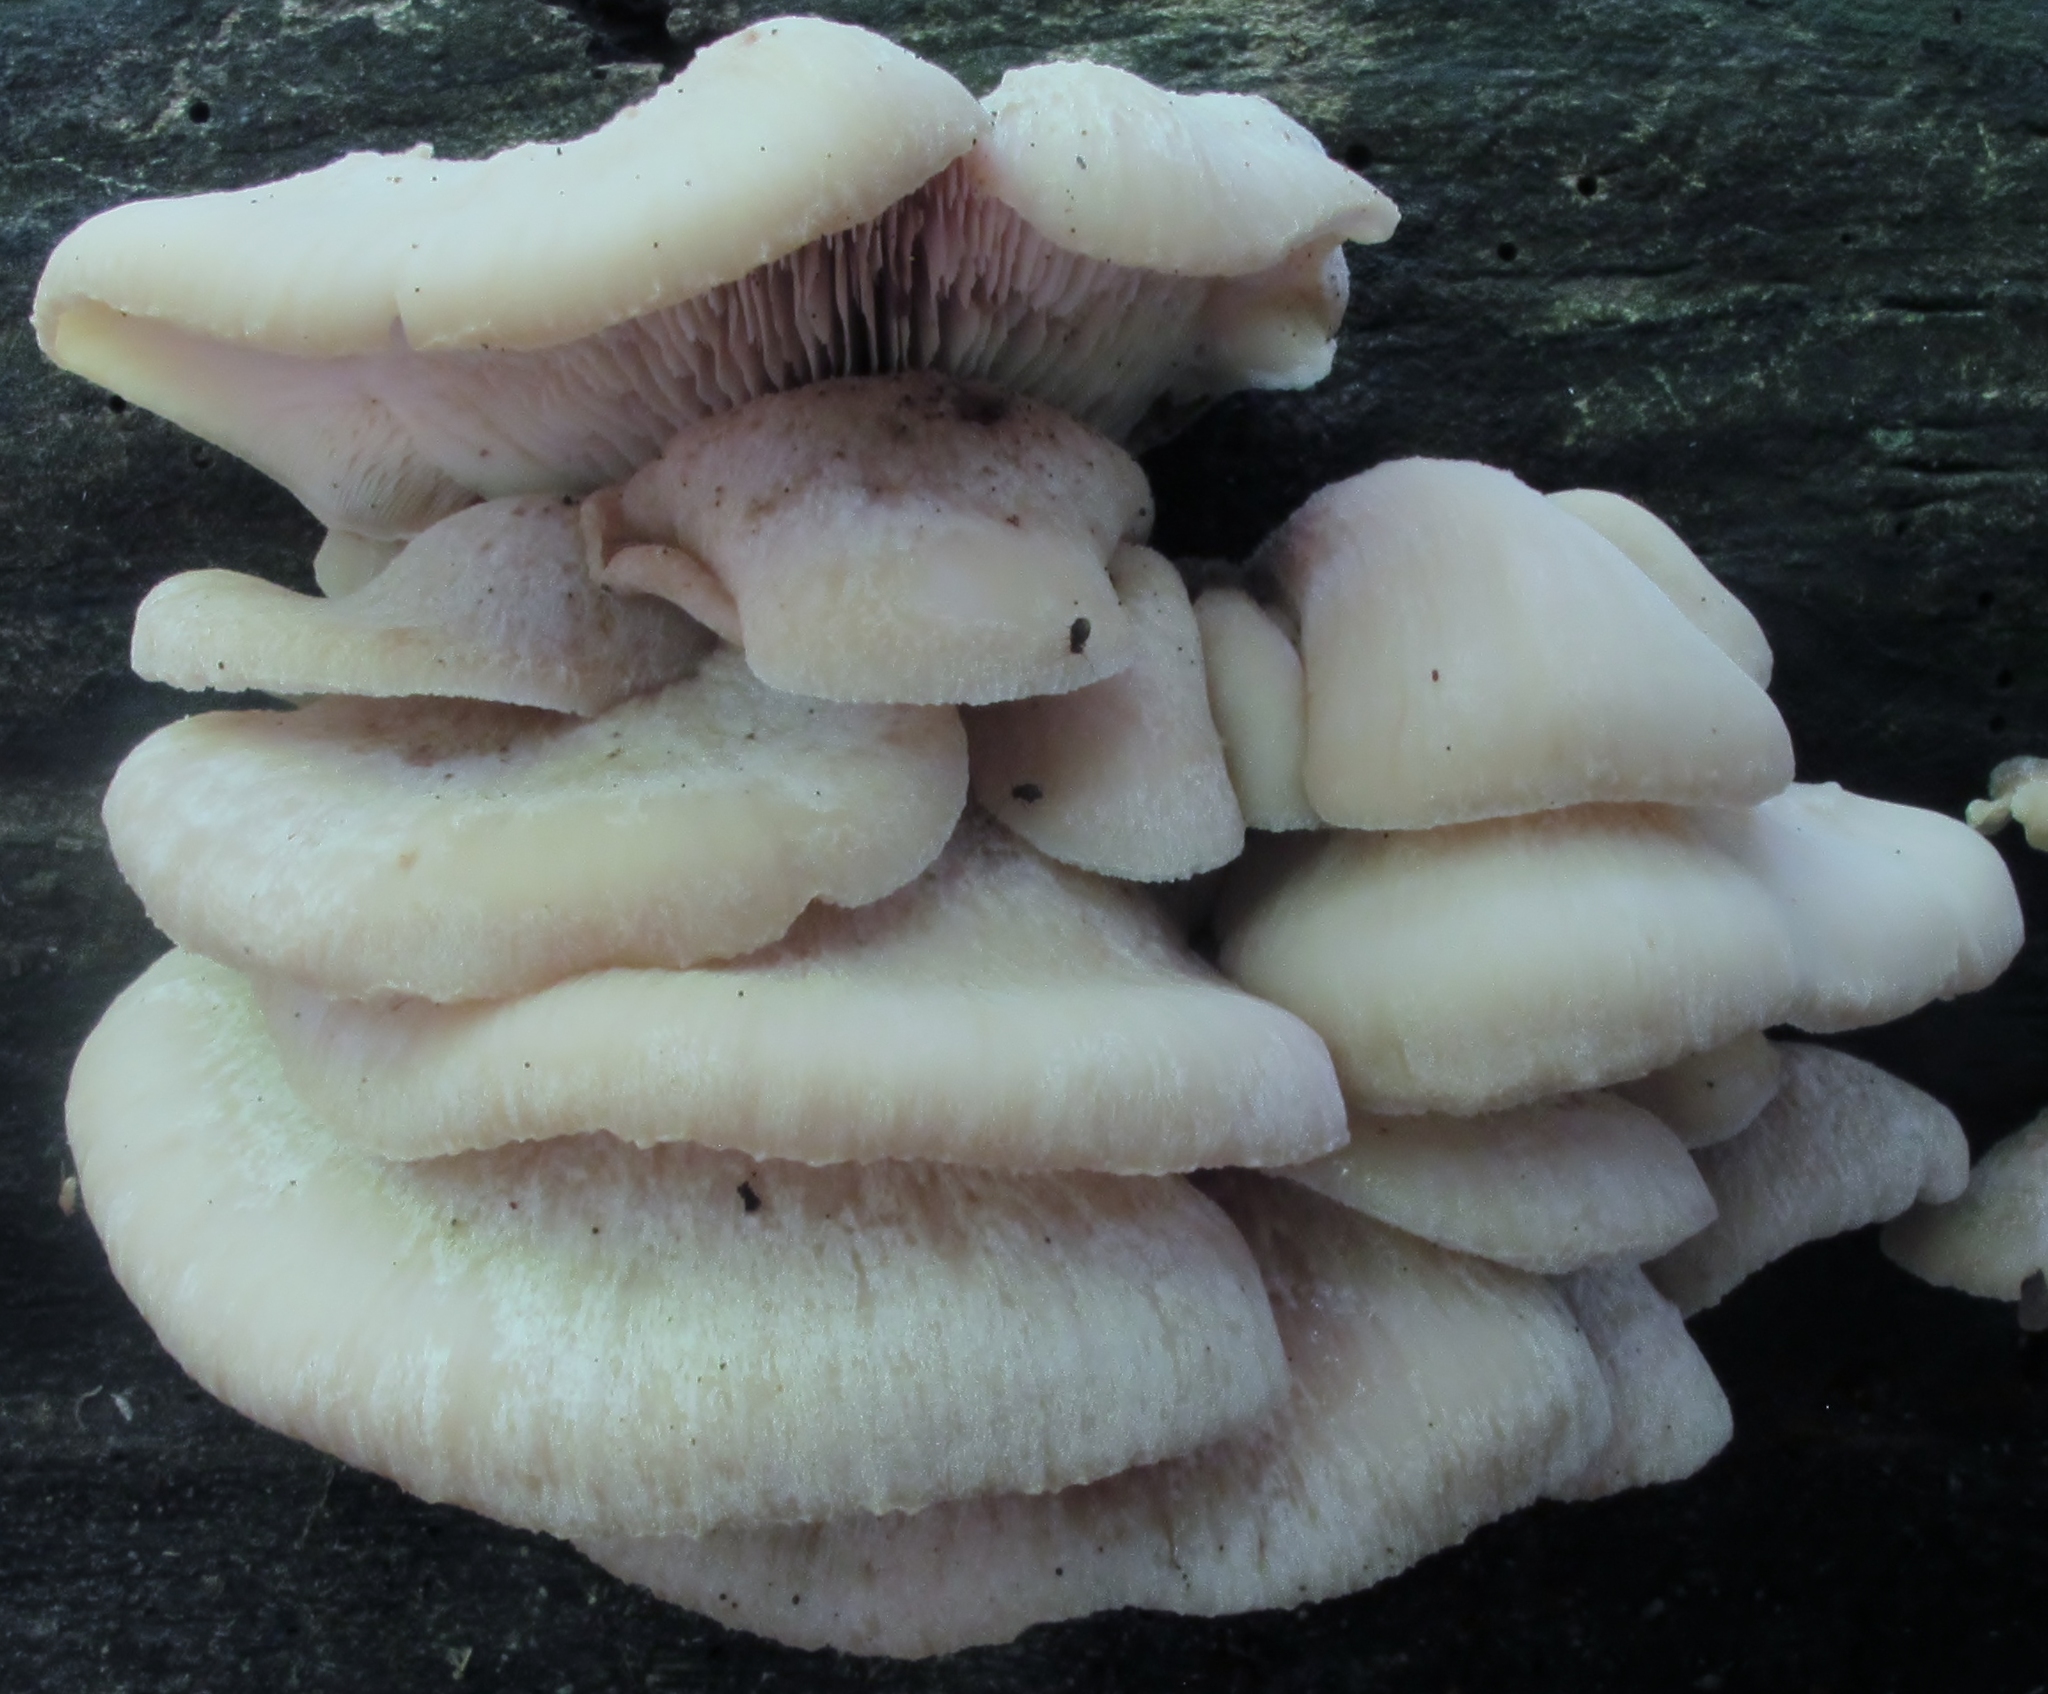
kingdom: Fungi
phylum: Basidiomycota
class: Agaricomycetes
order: Russulales
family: Auriscalpiaceae
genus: Lentinellus
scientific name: Lentinellus ursinus
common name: Bear lentinus
